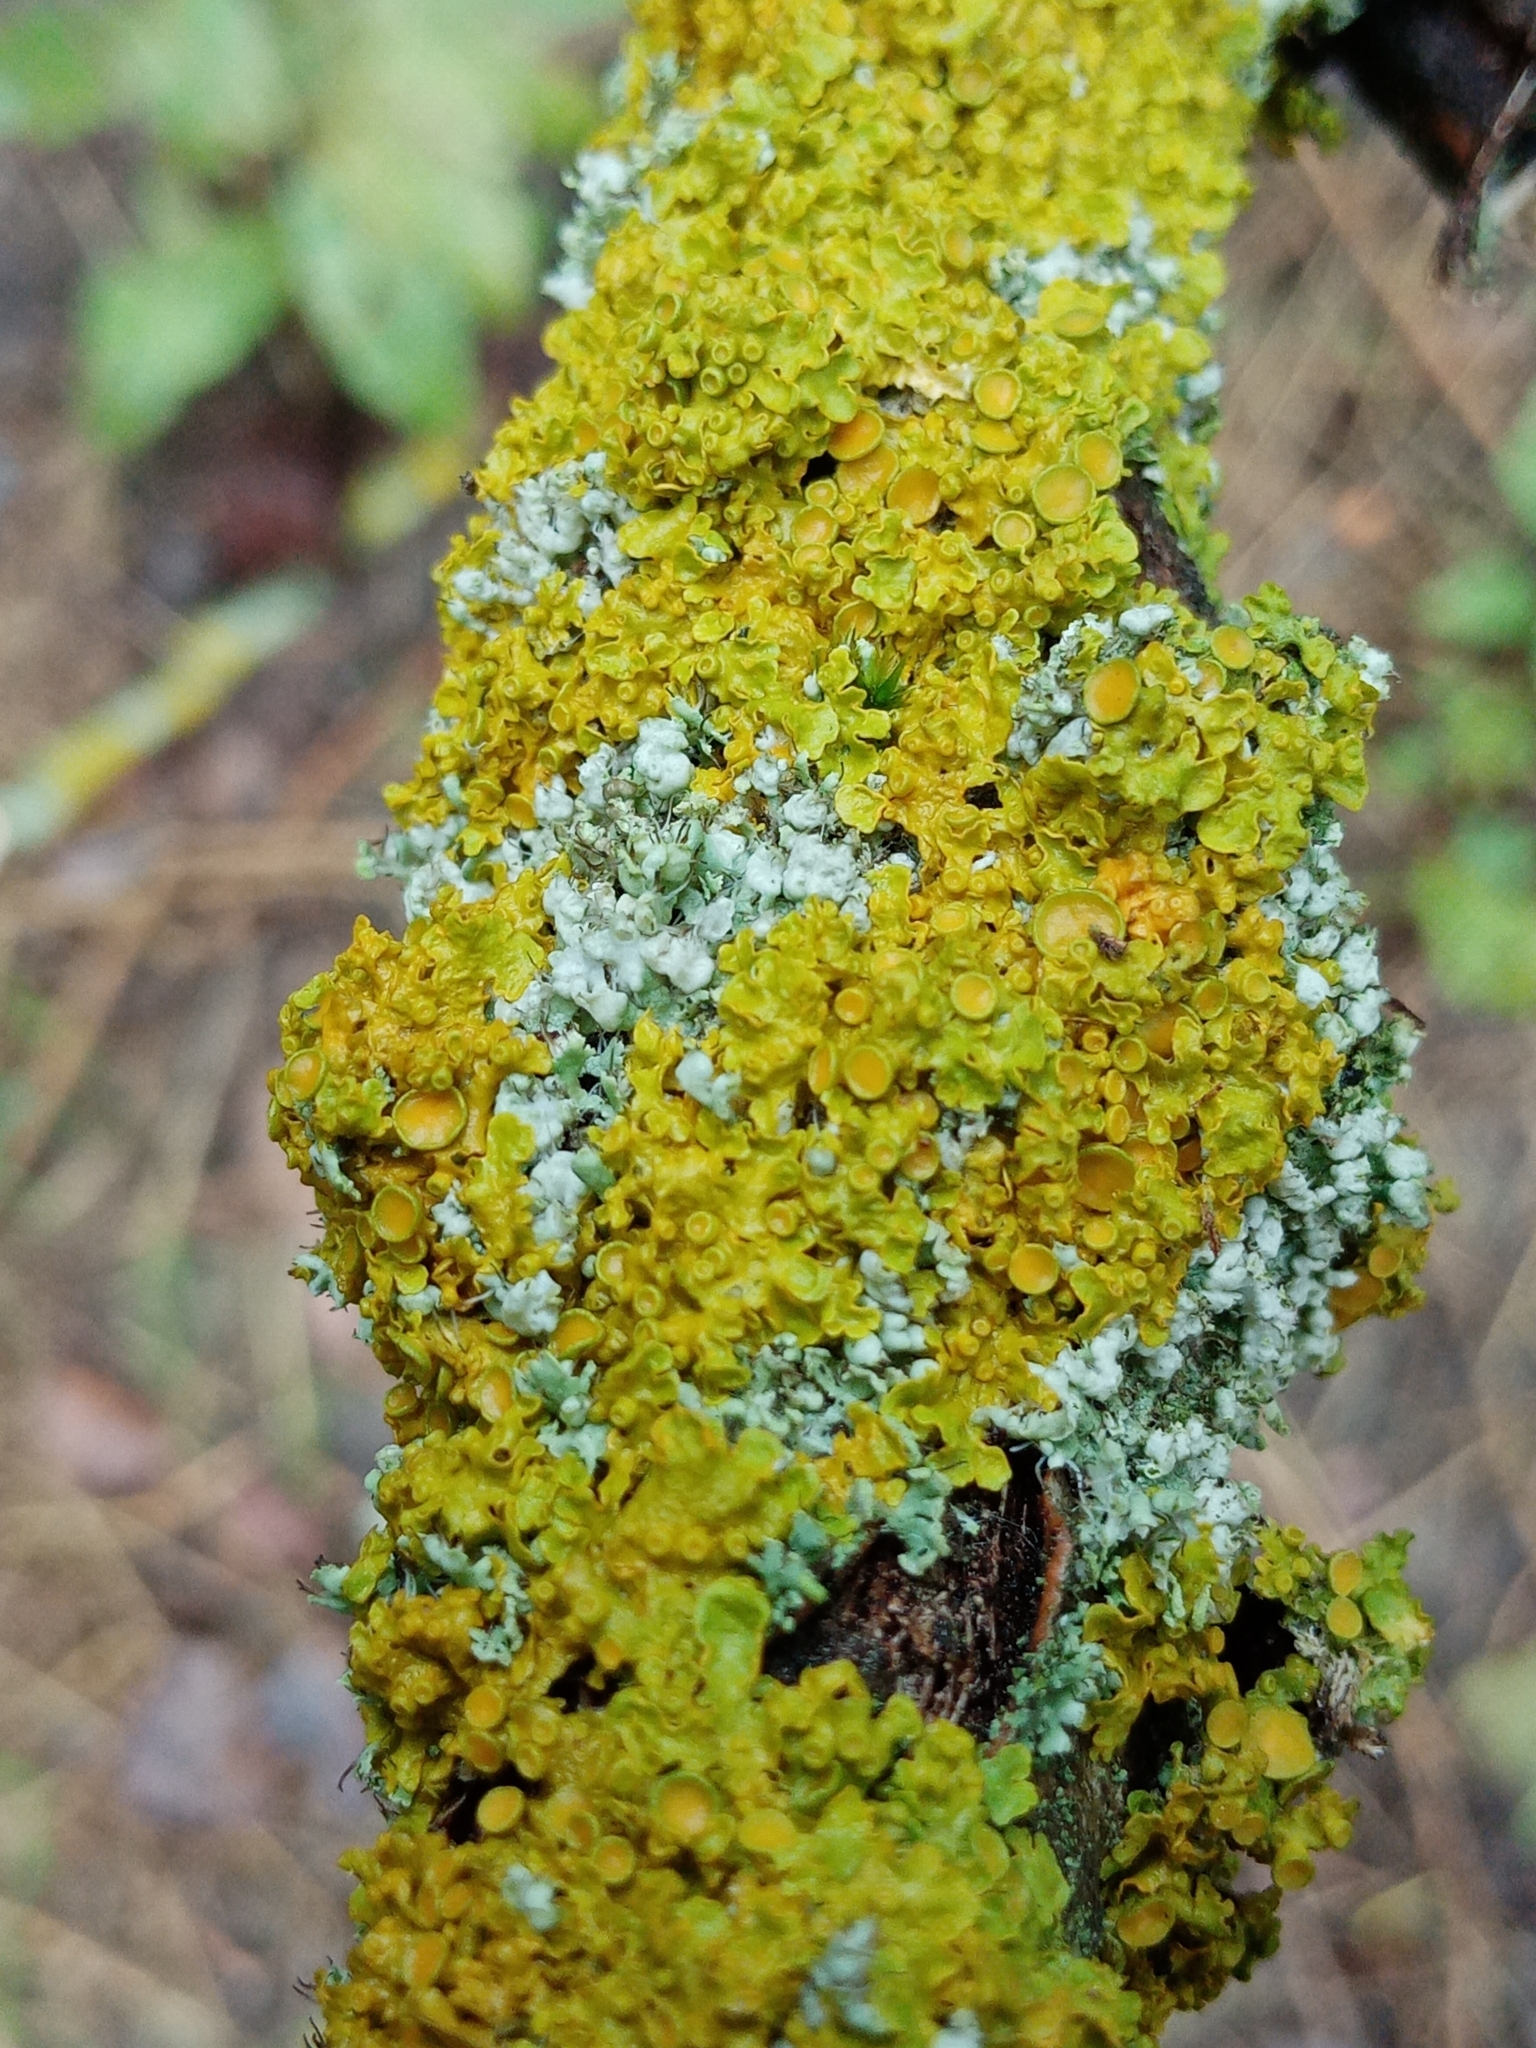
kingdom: Fungi
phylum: Ascomycota
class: Lecanoromycetes
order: Teloschistales
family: Teloschistaceae
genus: Xanthoria
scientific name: Xanthoria parietina
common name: Common orange lichen
